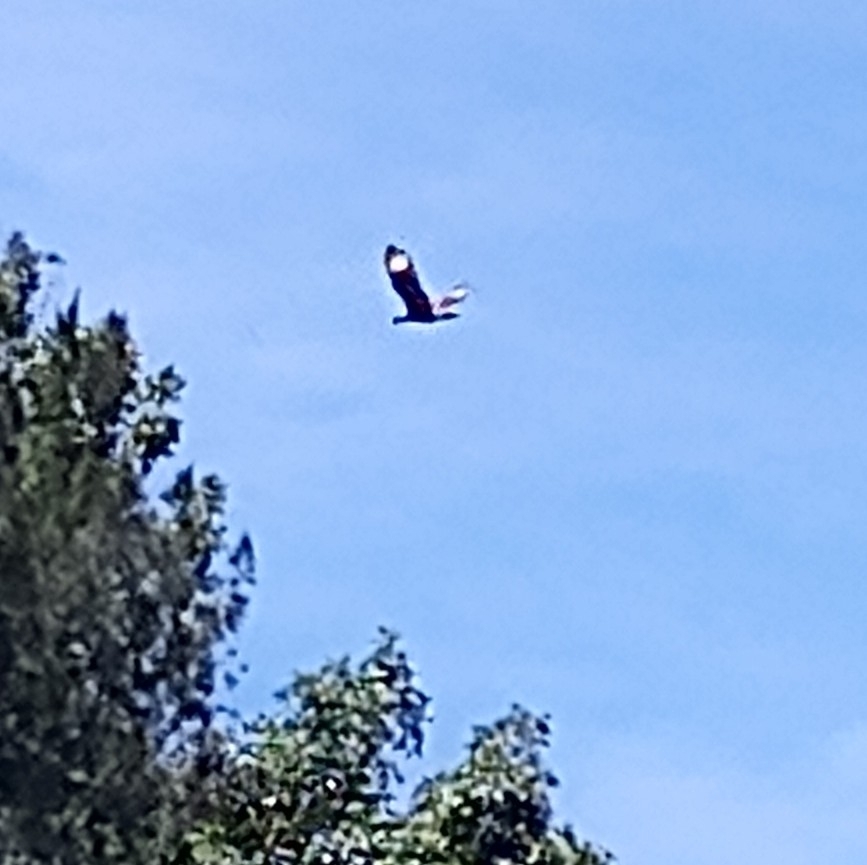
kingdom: Animalia
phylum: Chordata
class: Aves
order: Falconiformes
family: Falconidae
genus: Caracara
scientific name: Caracara plancus
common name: Southern caracara
